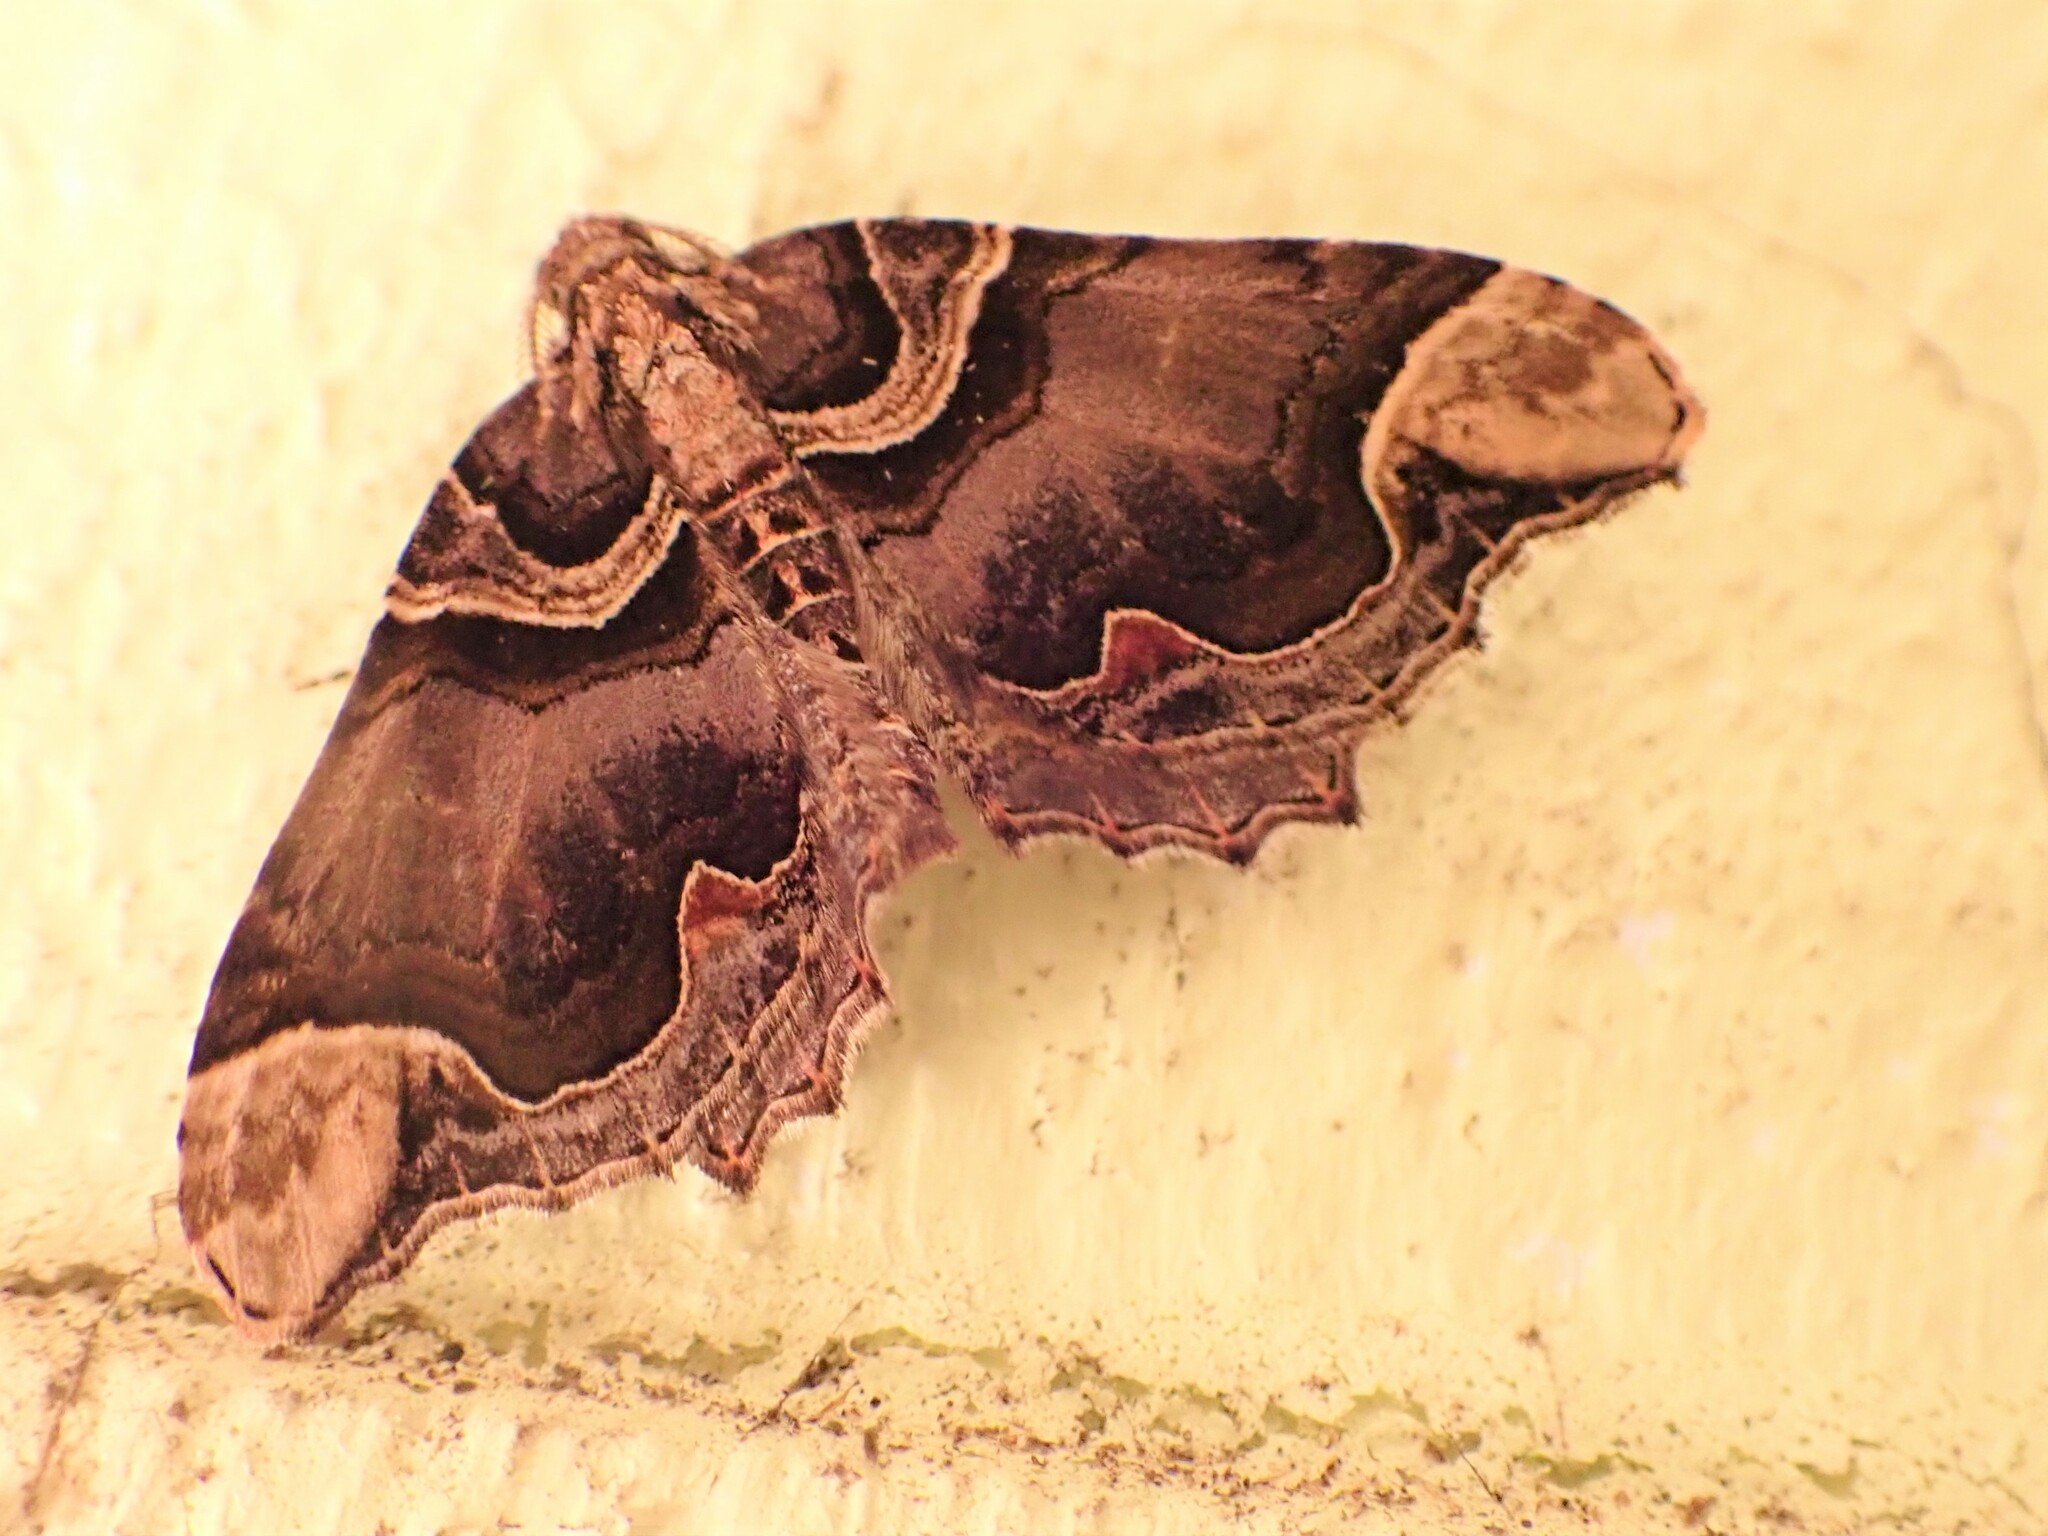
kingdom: Animalia
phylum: Arthropoda
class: Insecta
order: Lepidoptera
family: Geometridae
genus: Asaphodes
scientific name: Asaphodes chlamydota
